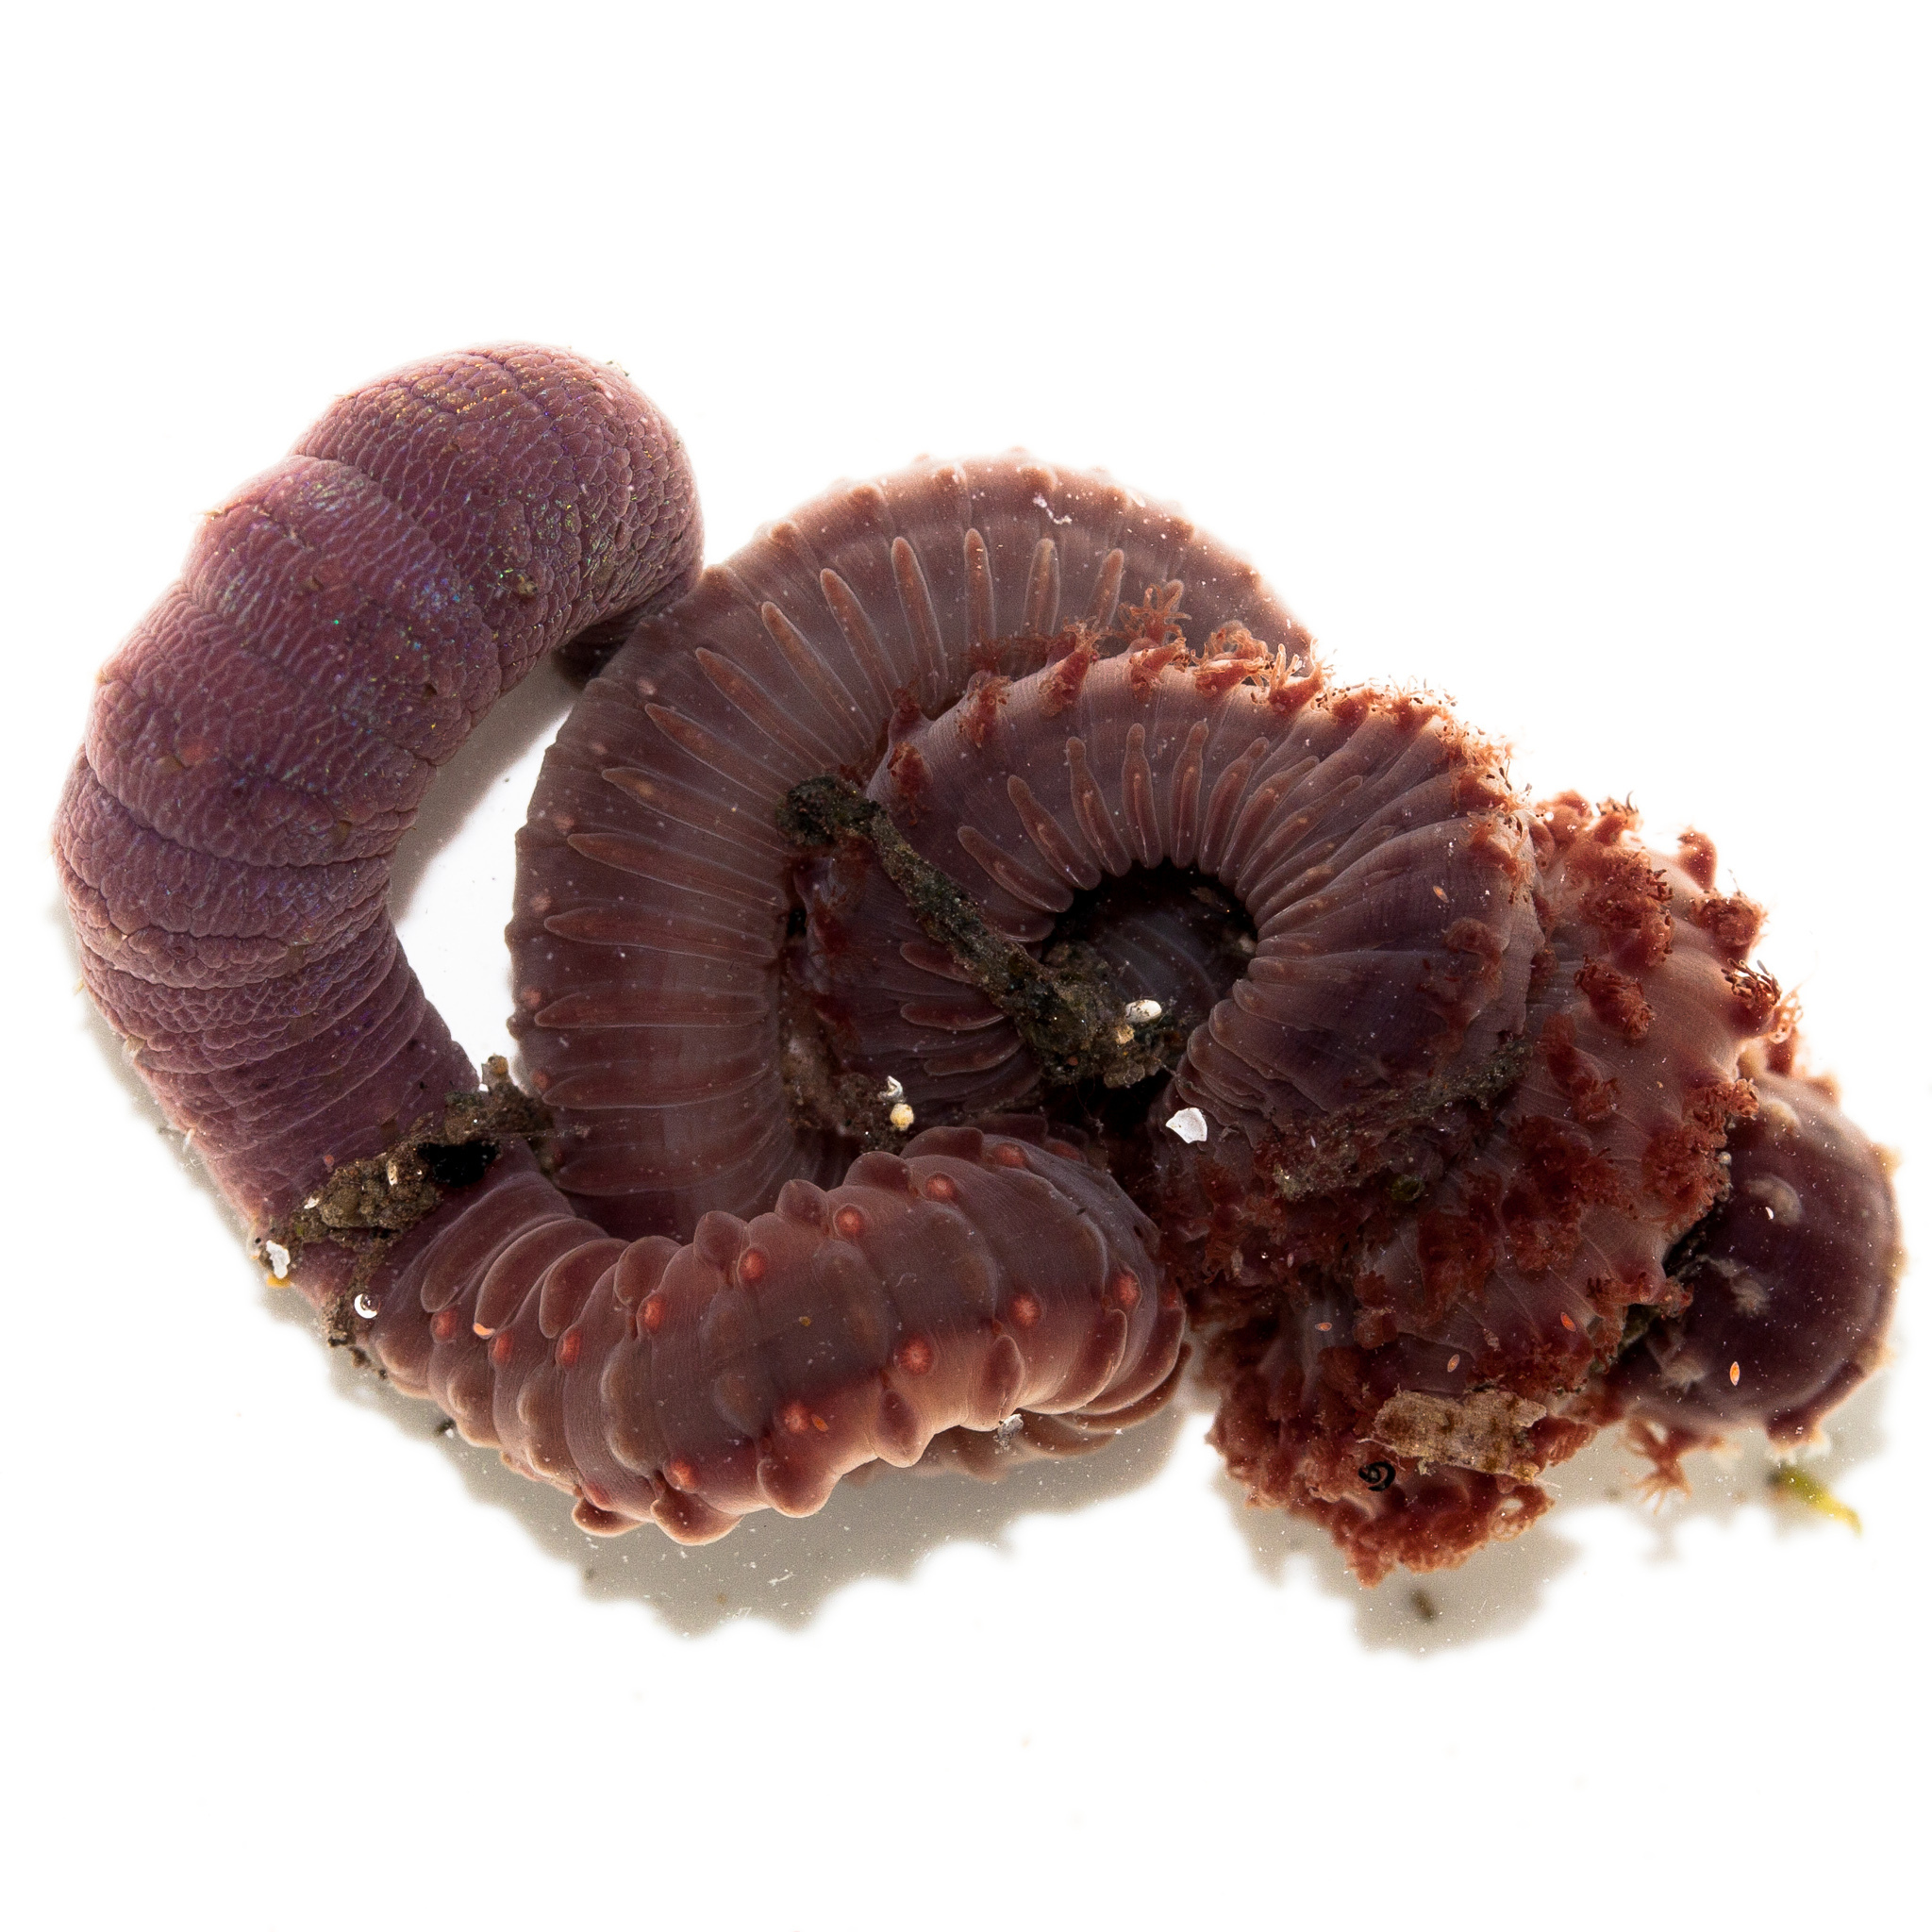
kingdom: Animalia
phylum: Annelida
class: Polychaeta
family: Capitellidae
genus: Notomastus
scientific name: Notomastus magnus
